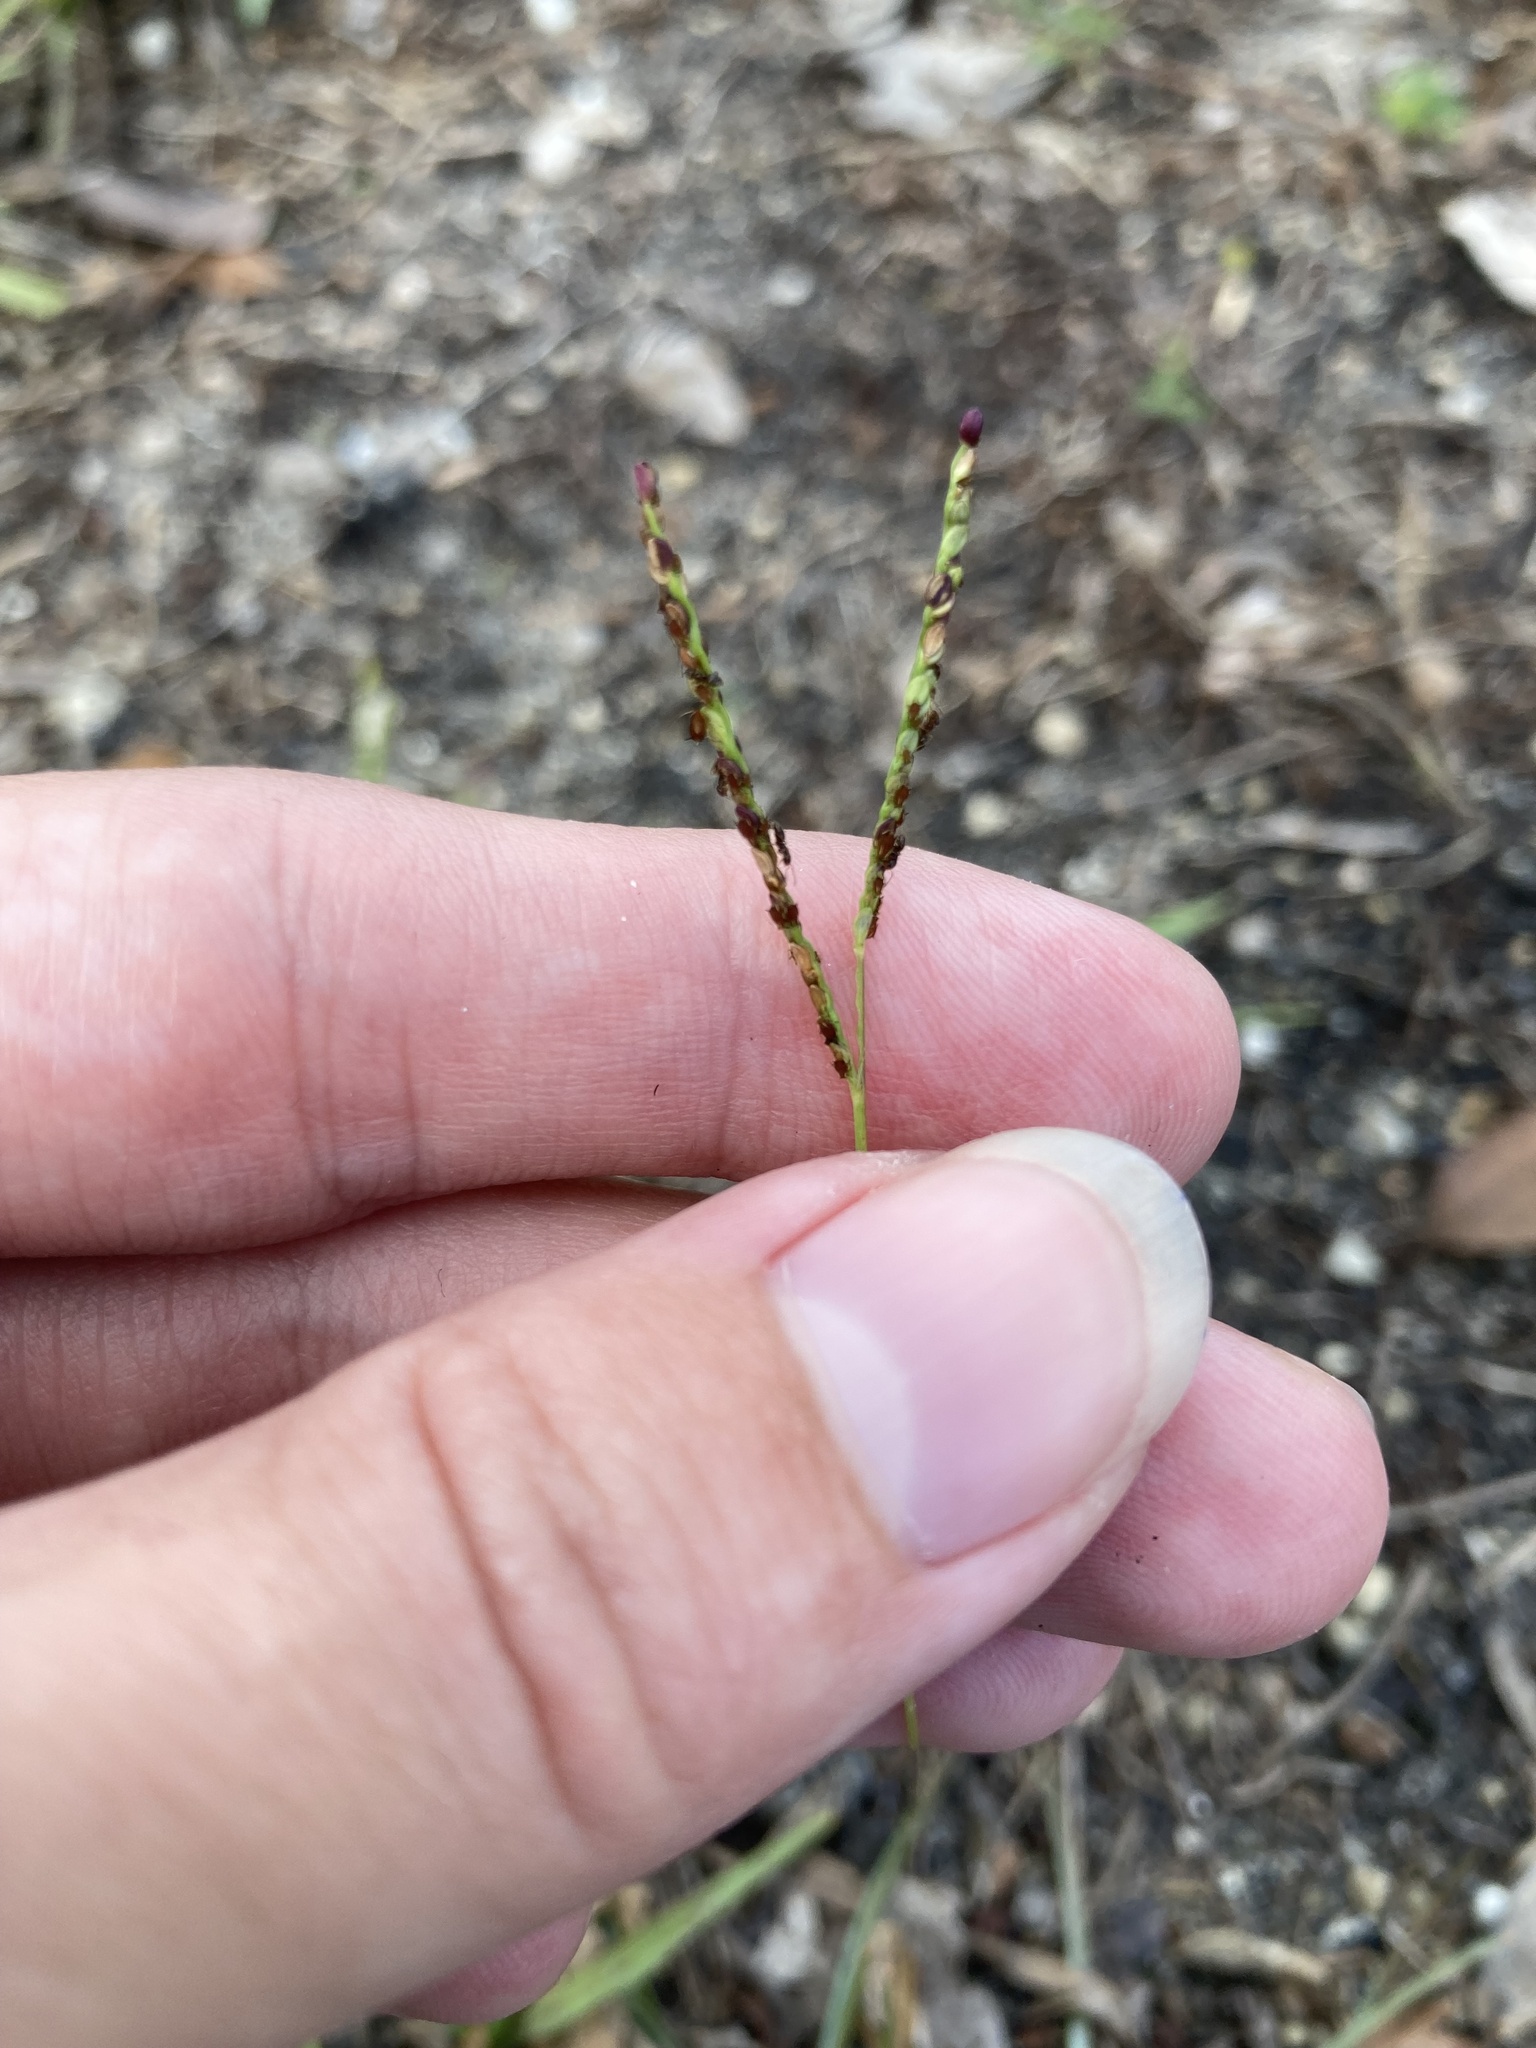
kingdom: Plantae
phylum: Tracheophyta
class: Liliopsida
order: Poales
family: Poaceae
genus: Paspalum
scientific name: Paspalum setaceum
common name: Slender paspalum
